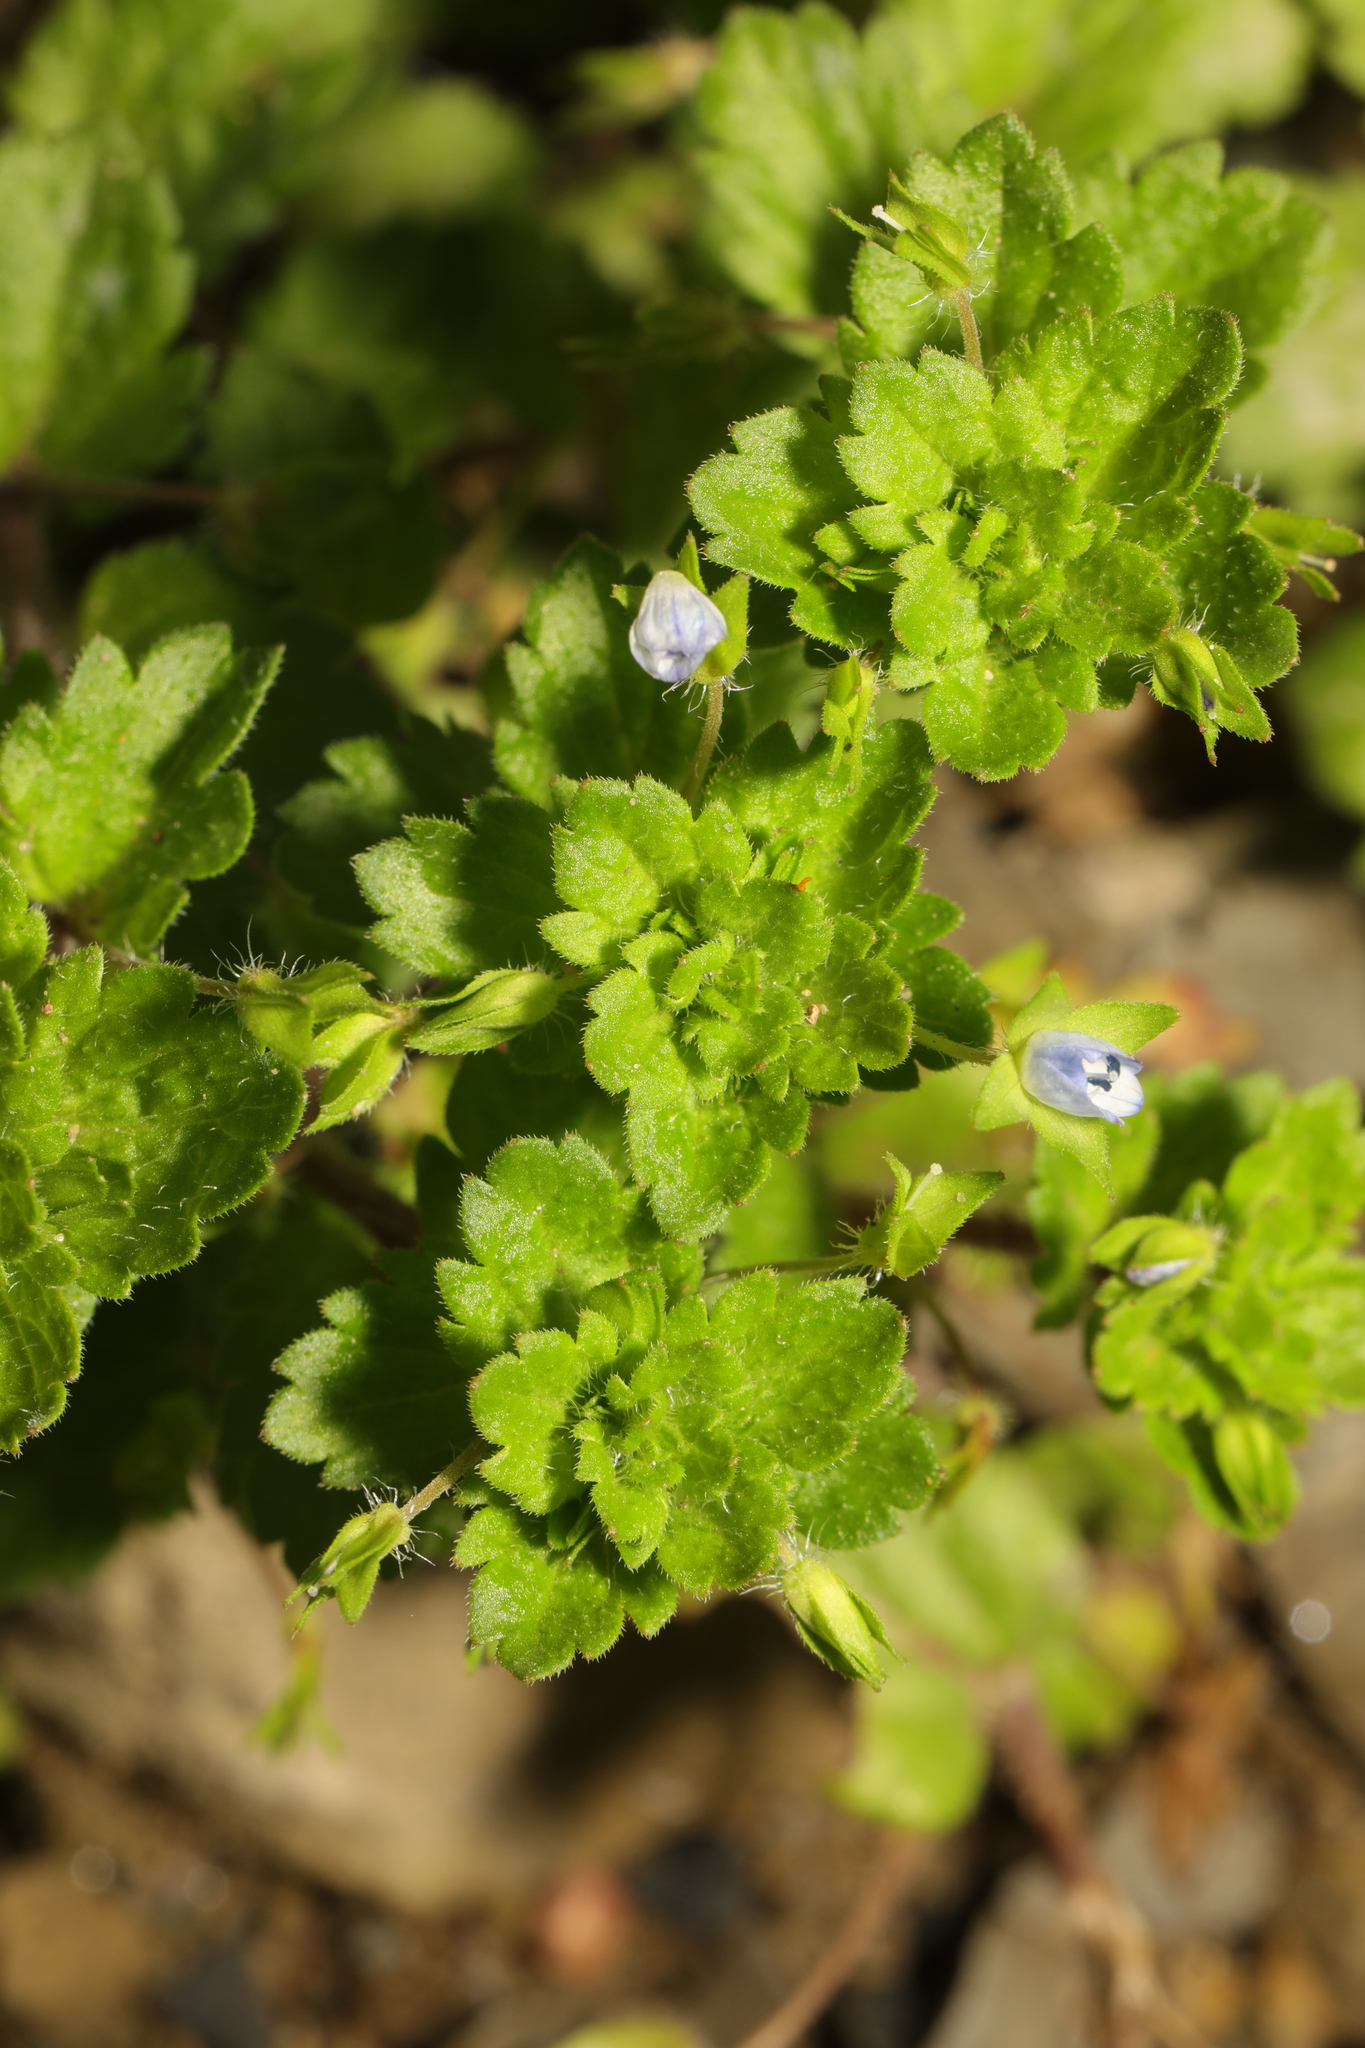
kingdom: Plantae
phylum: Tracheophyta
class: Magnoliopsida
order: Lamiales
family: Plantaginaceae
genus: Veronica
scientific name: Veronica persica
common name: Common field-speedwell
